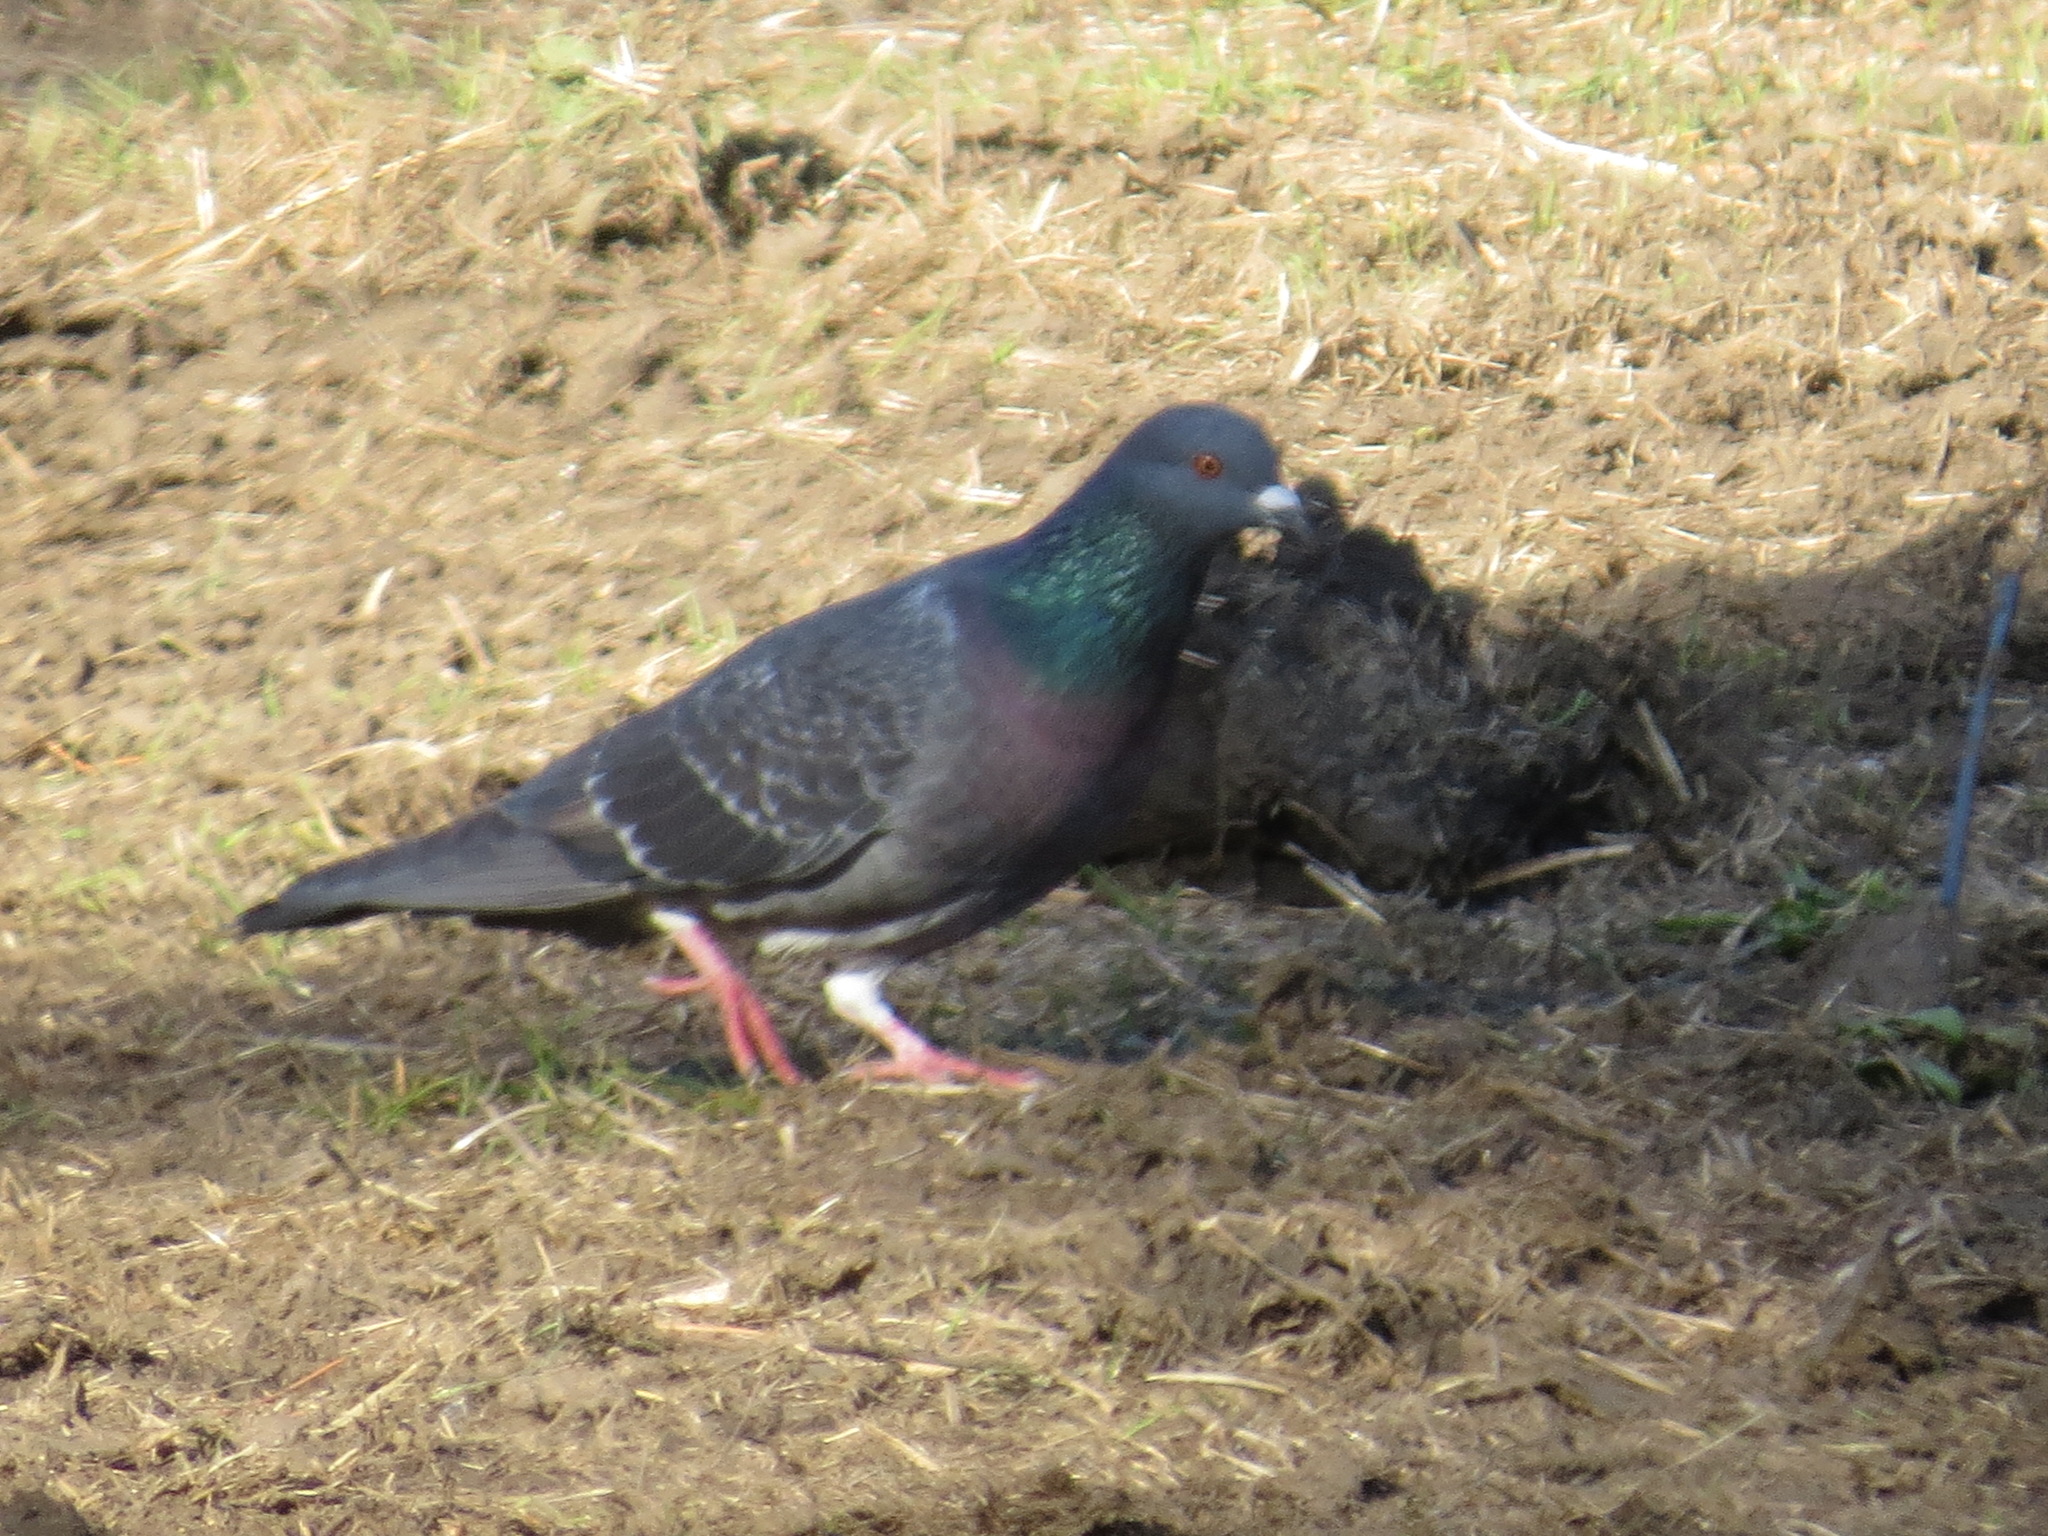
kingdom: Animalia
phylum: Chordata
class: Aves
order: Columbiformes
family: Columbidae
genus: Columba
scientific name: Columba livia
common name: Rock pigeon
